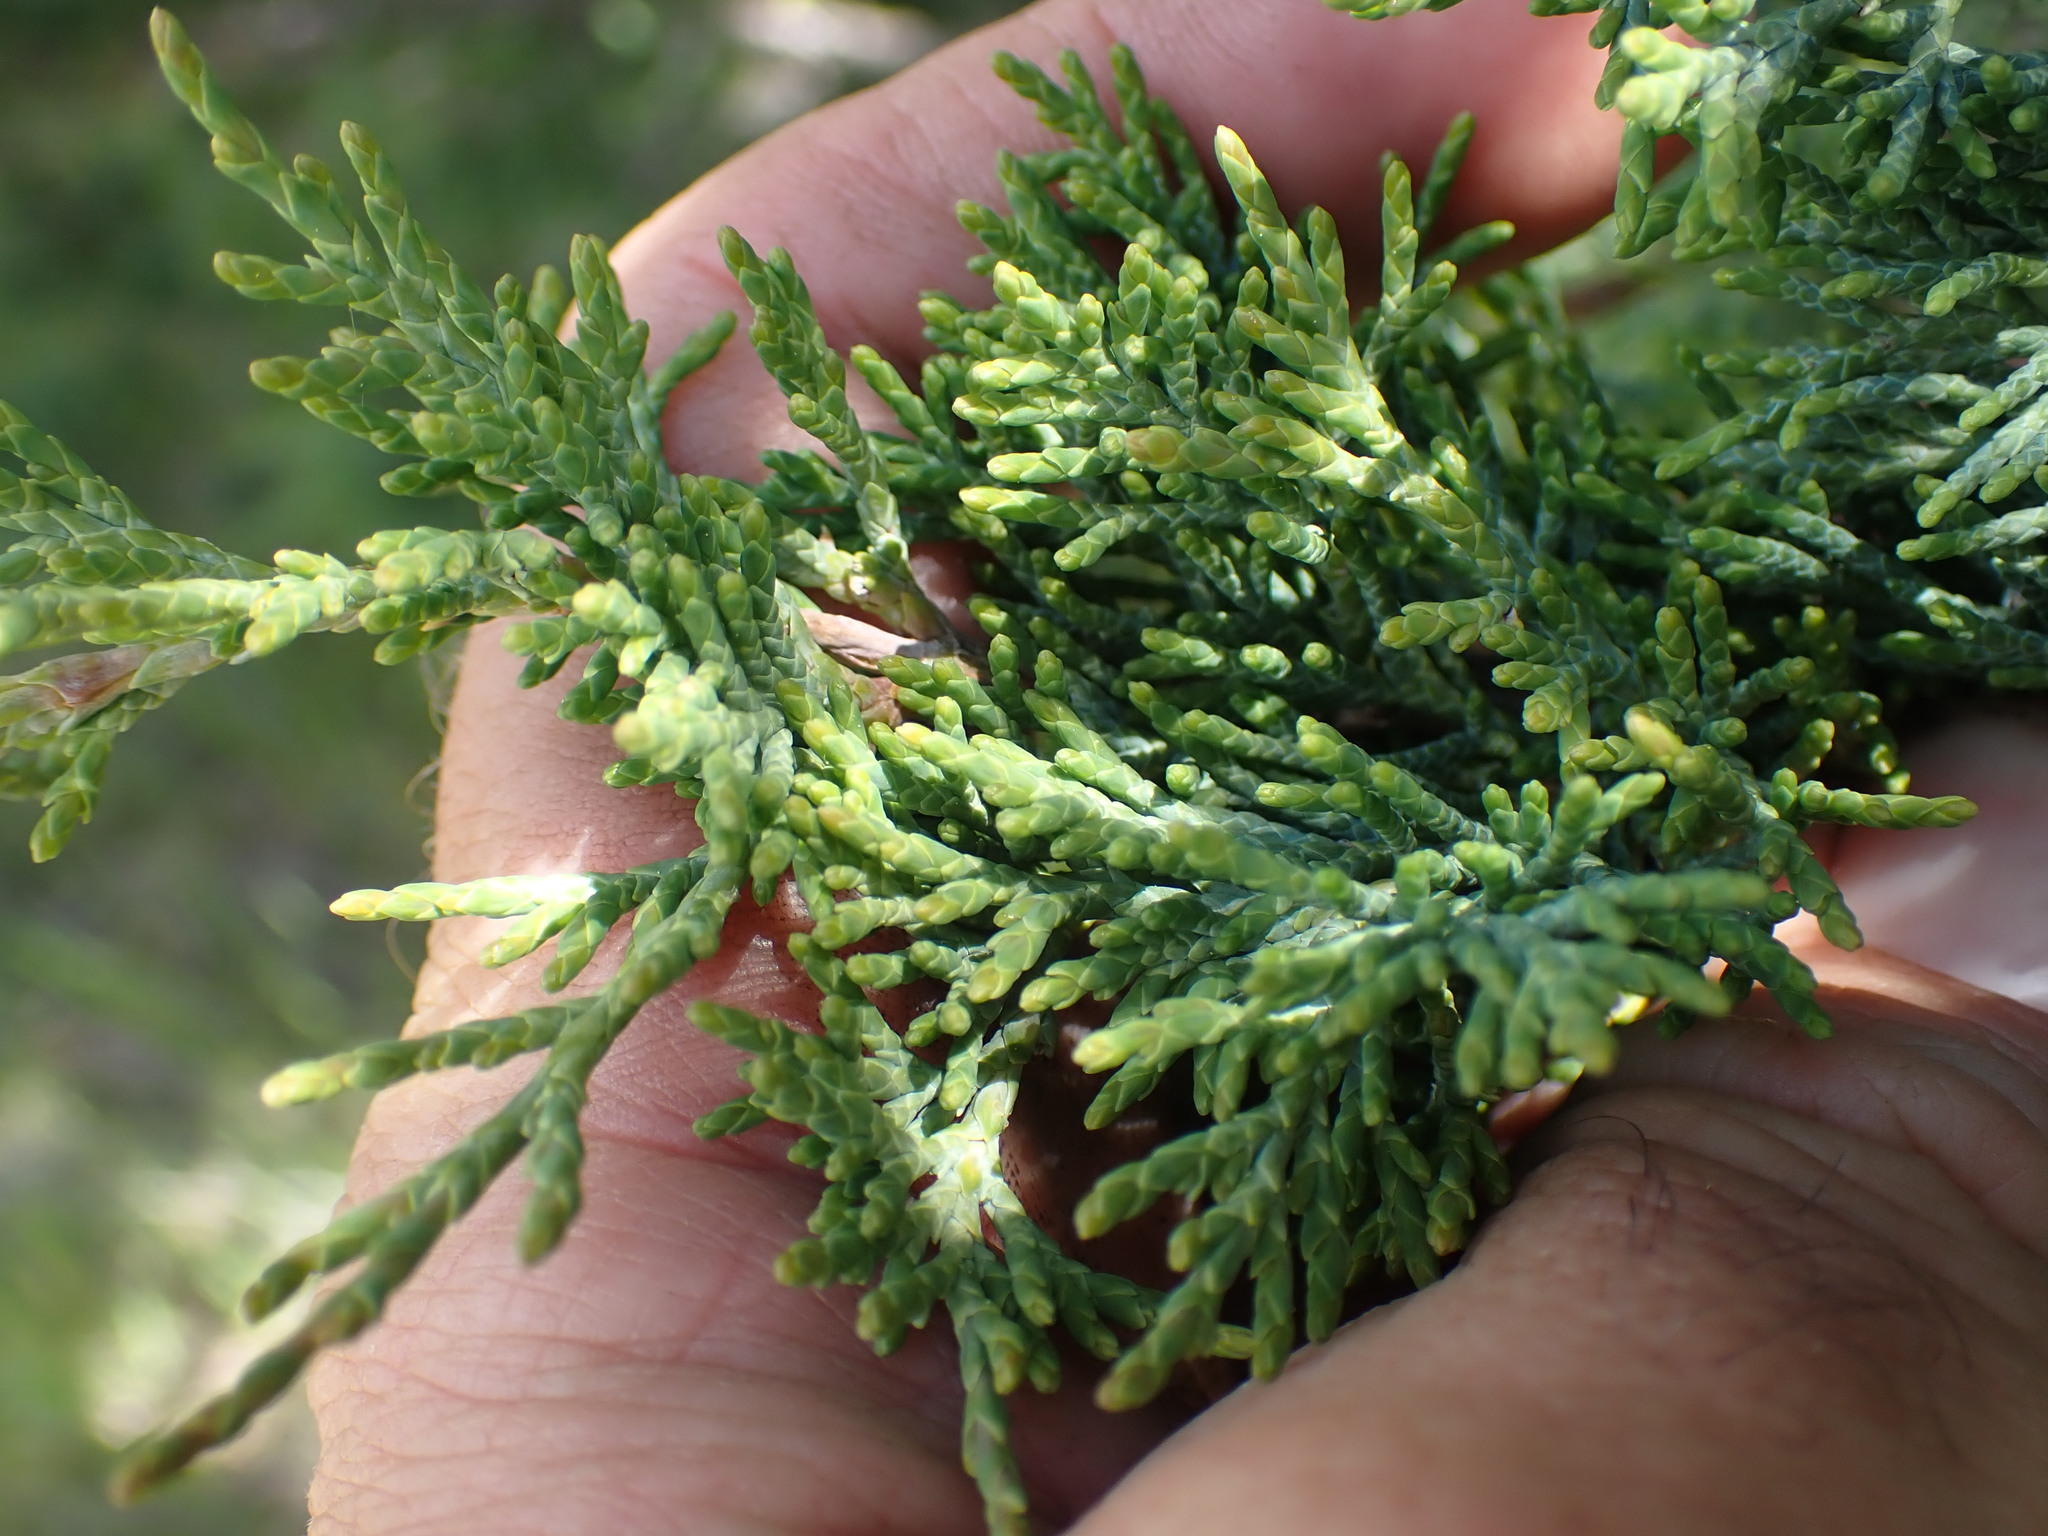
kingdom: Plantae
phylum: Tracheophyta
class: Pinopsida
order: Pinales
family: Cupressaceae
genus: Juniperus
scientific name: Juniperus scopulorum
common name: Rocky mountain juniper
